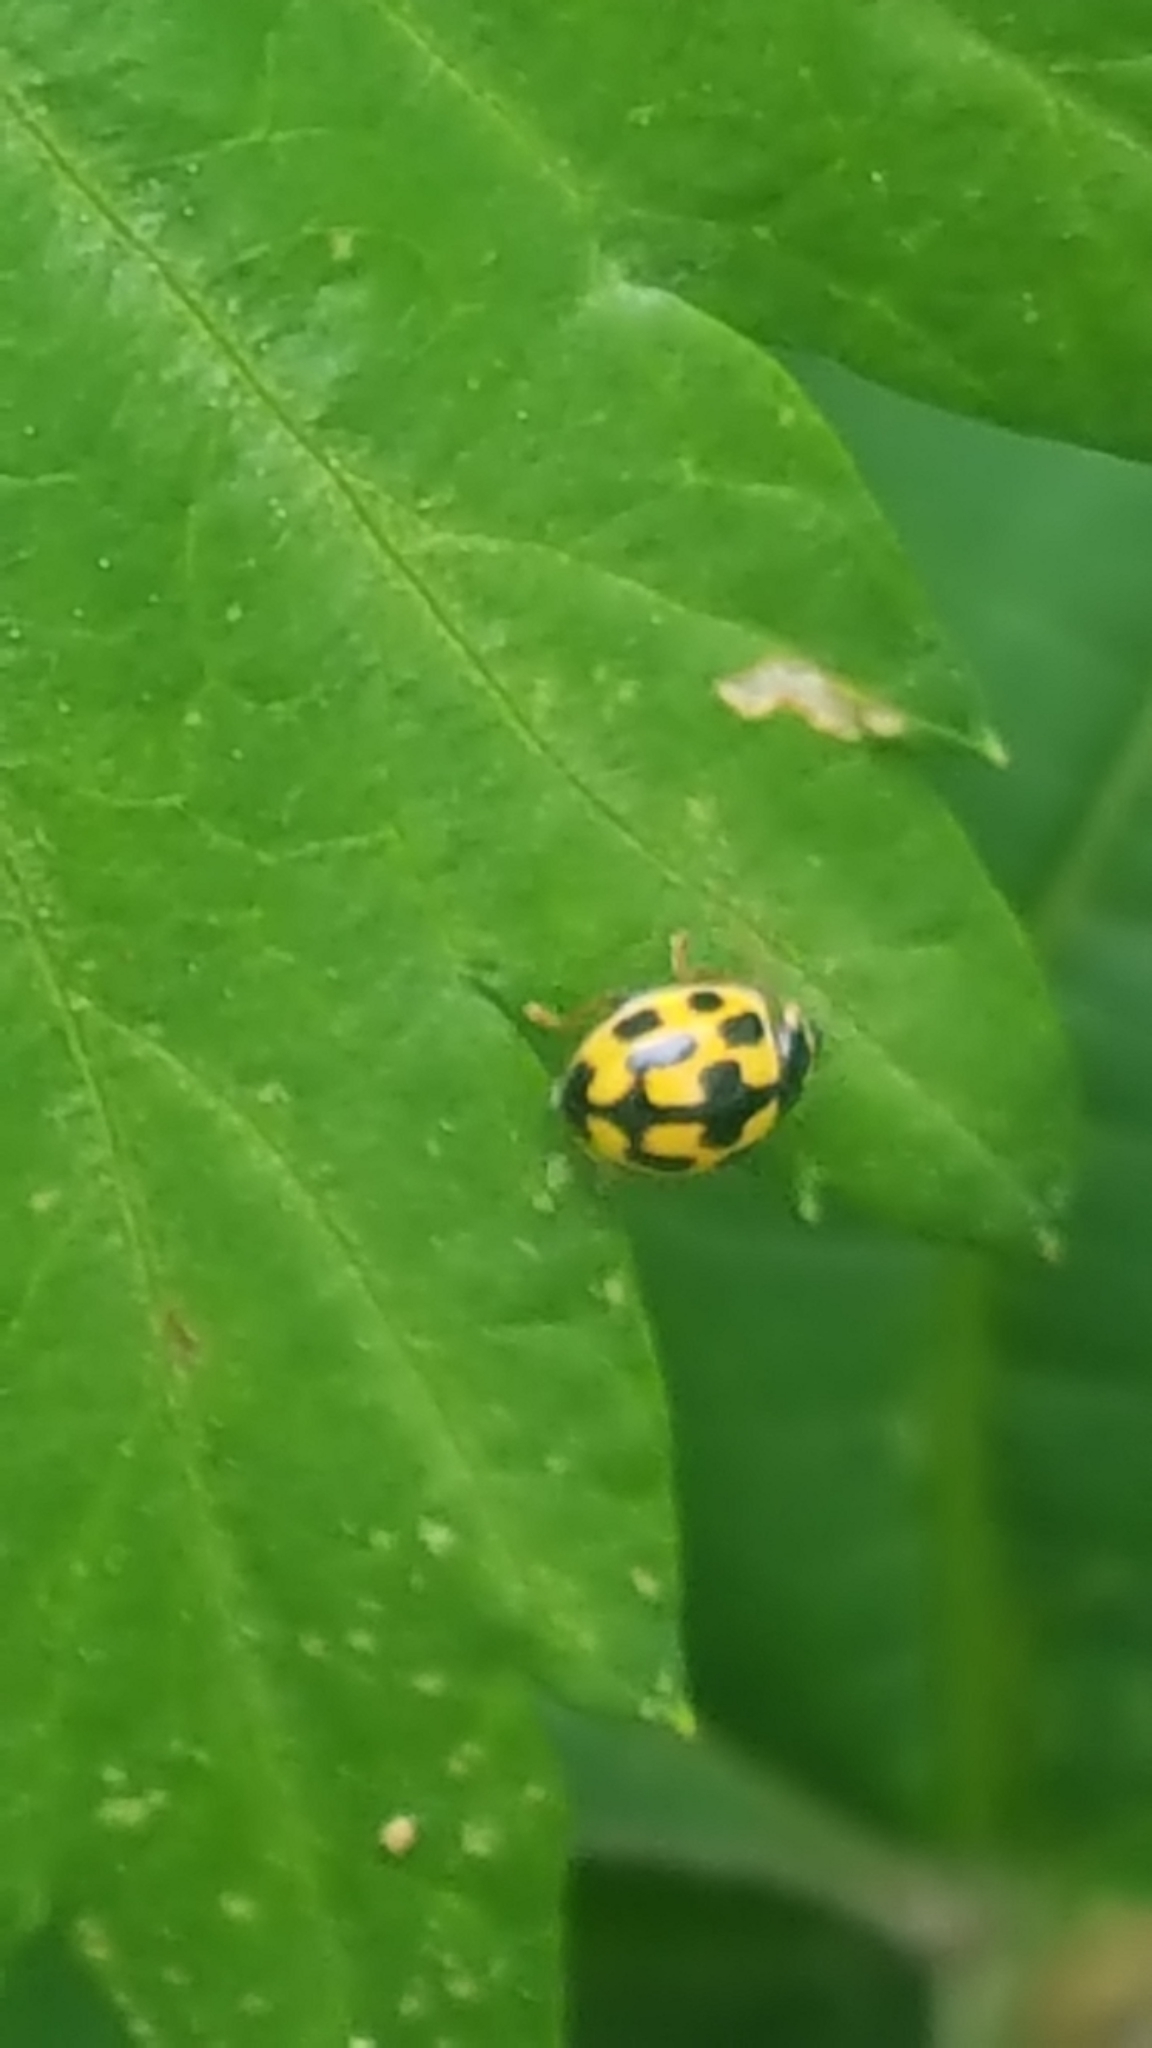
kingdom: Animalia
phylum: Arthropoda
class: Insecta
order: Coleoptera
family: Coccinellidae
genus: Propylaea
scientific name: Propylaea quatuordecimpunctata
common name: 14-spotted ladybird beetle
